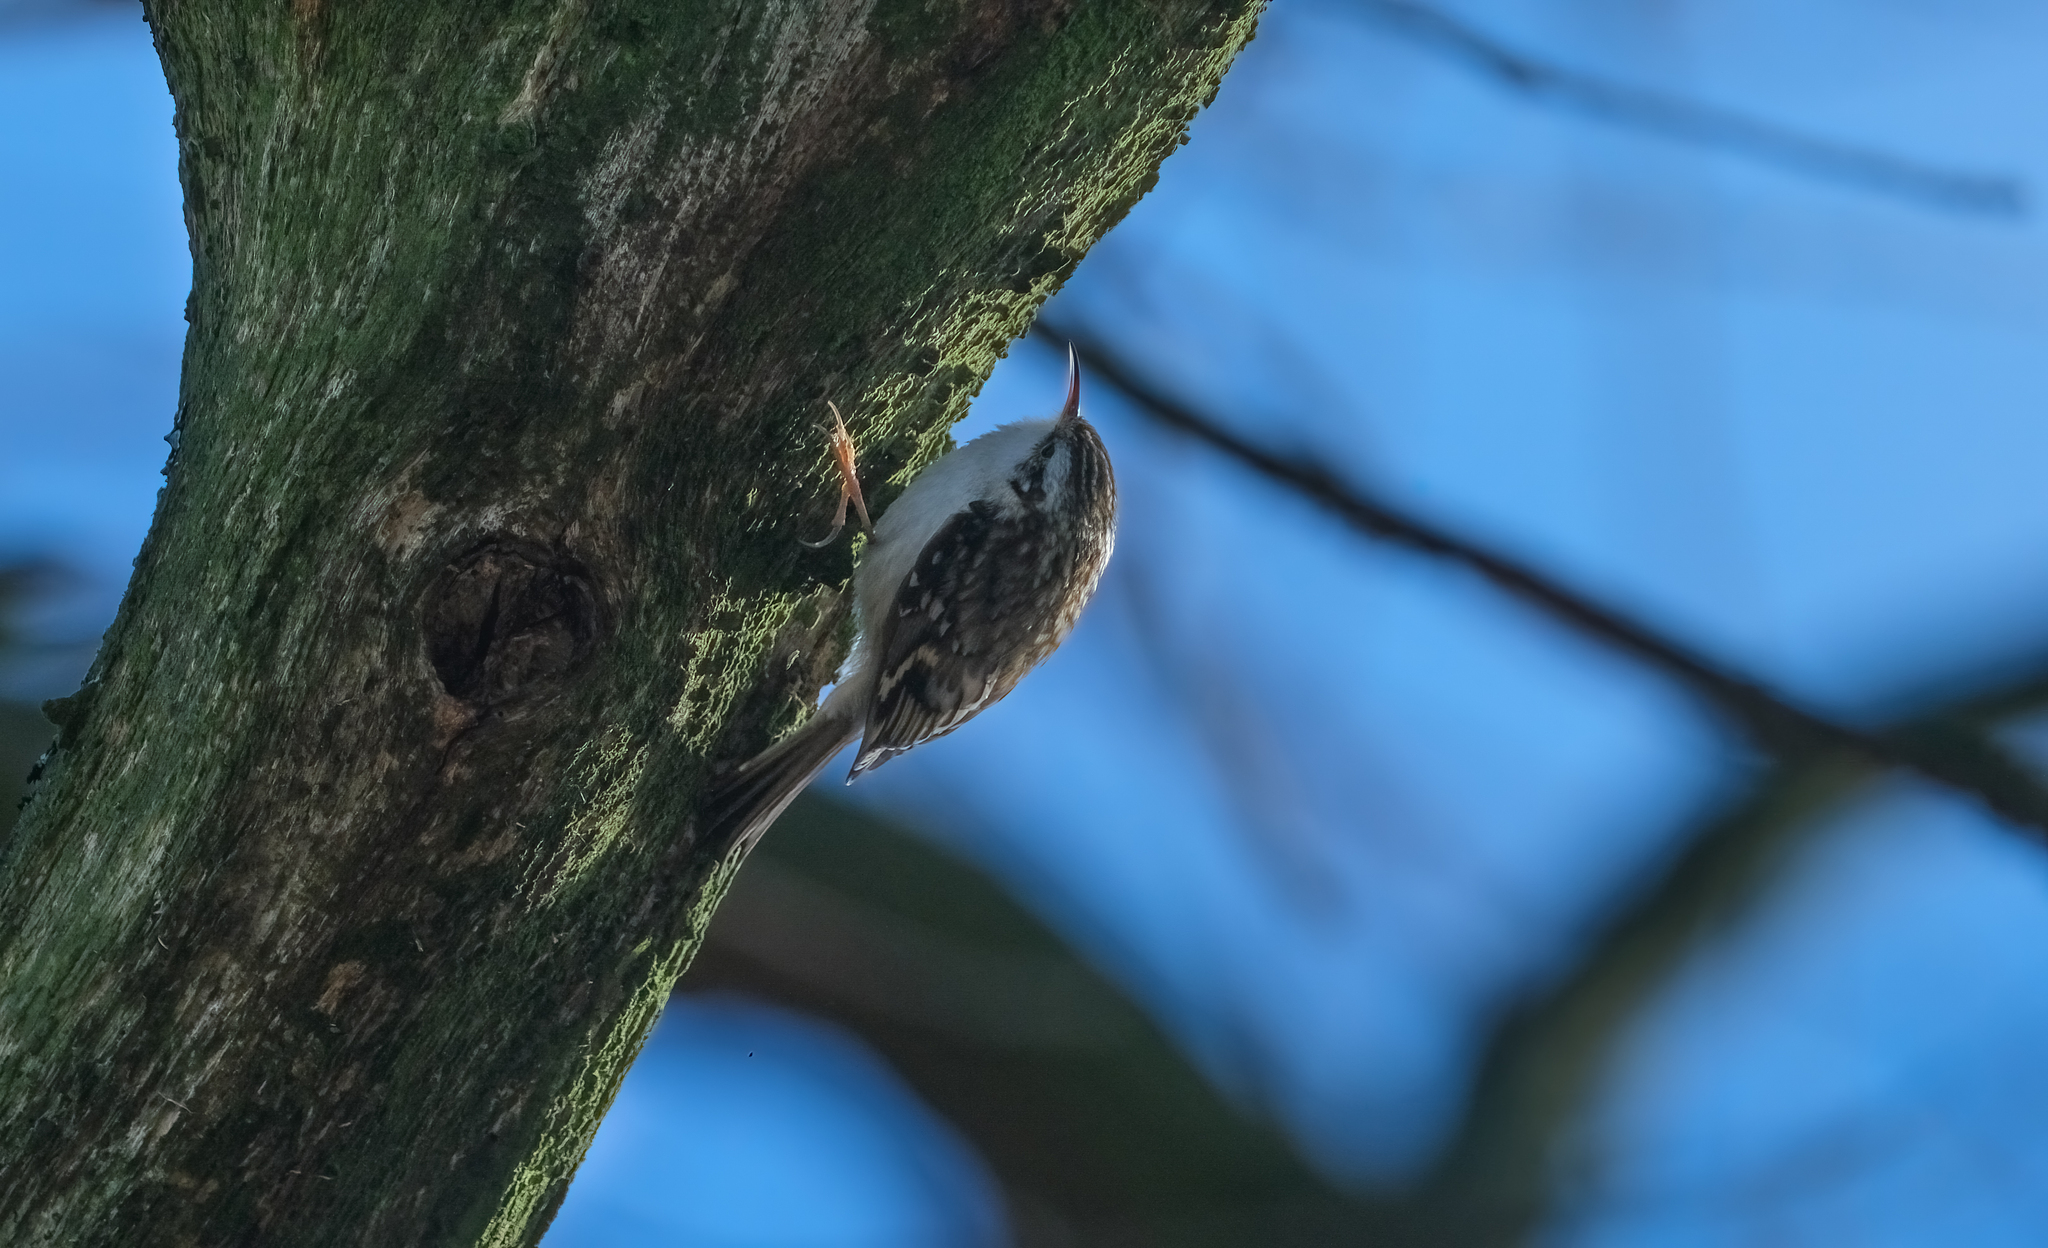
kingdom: Animalia
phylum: Chordata
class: Aves
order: Passeriformes
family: Certhiidae
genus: Certhia
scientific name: Certhia familiaris
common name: Eurasian treecreeper
